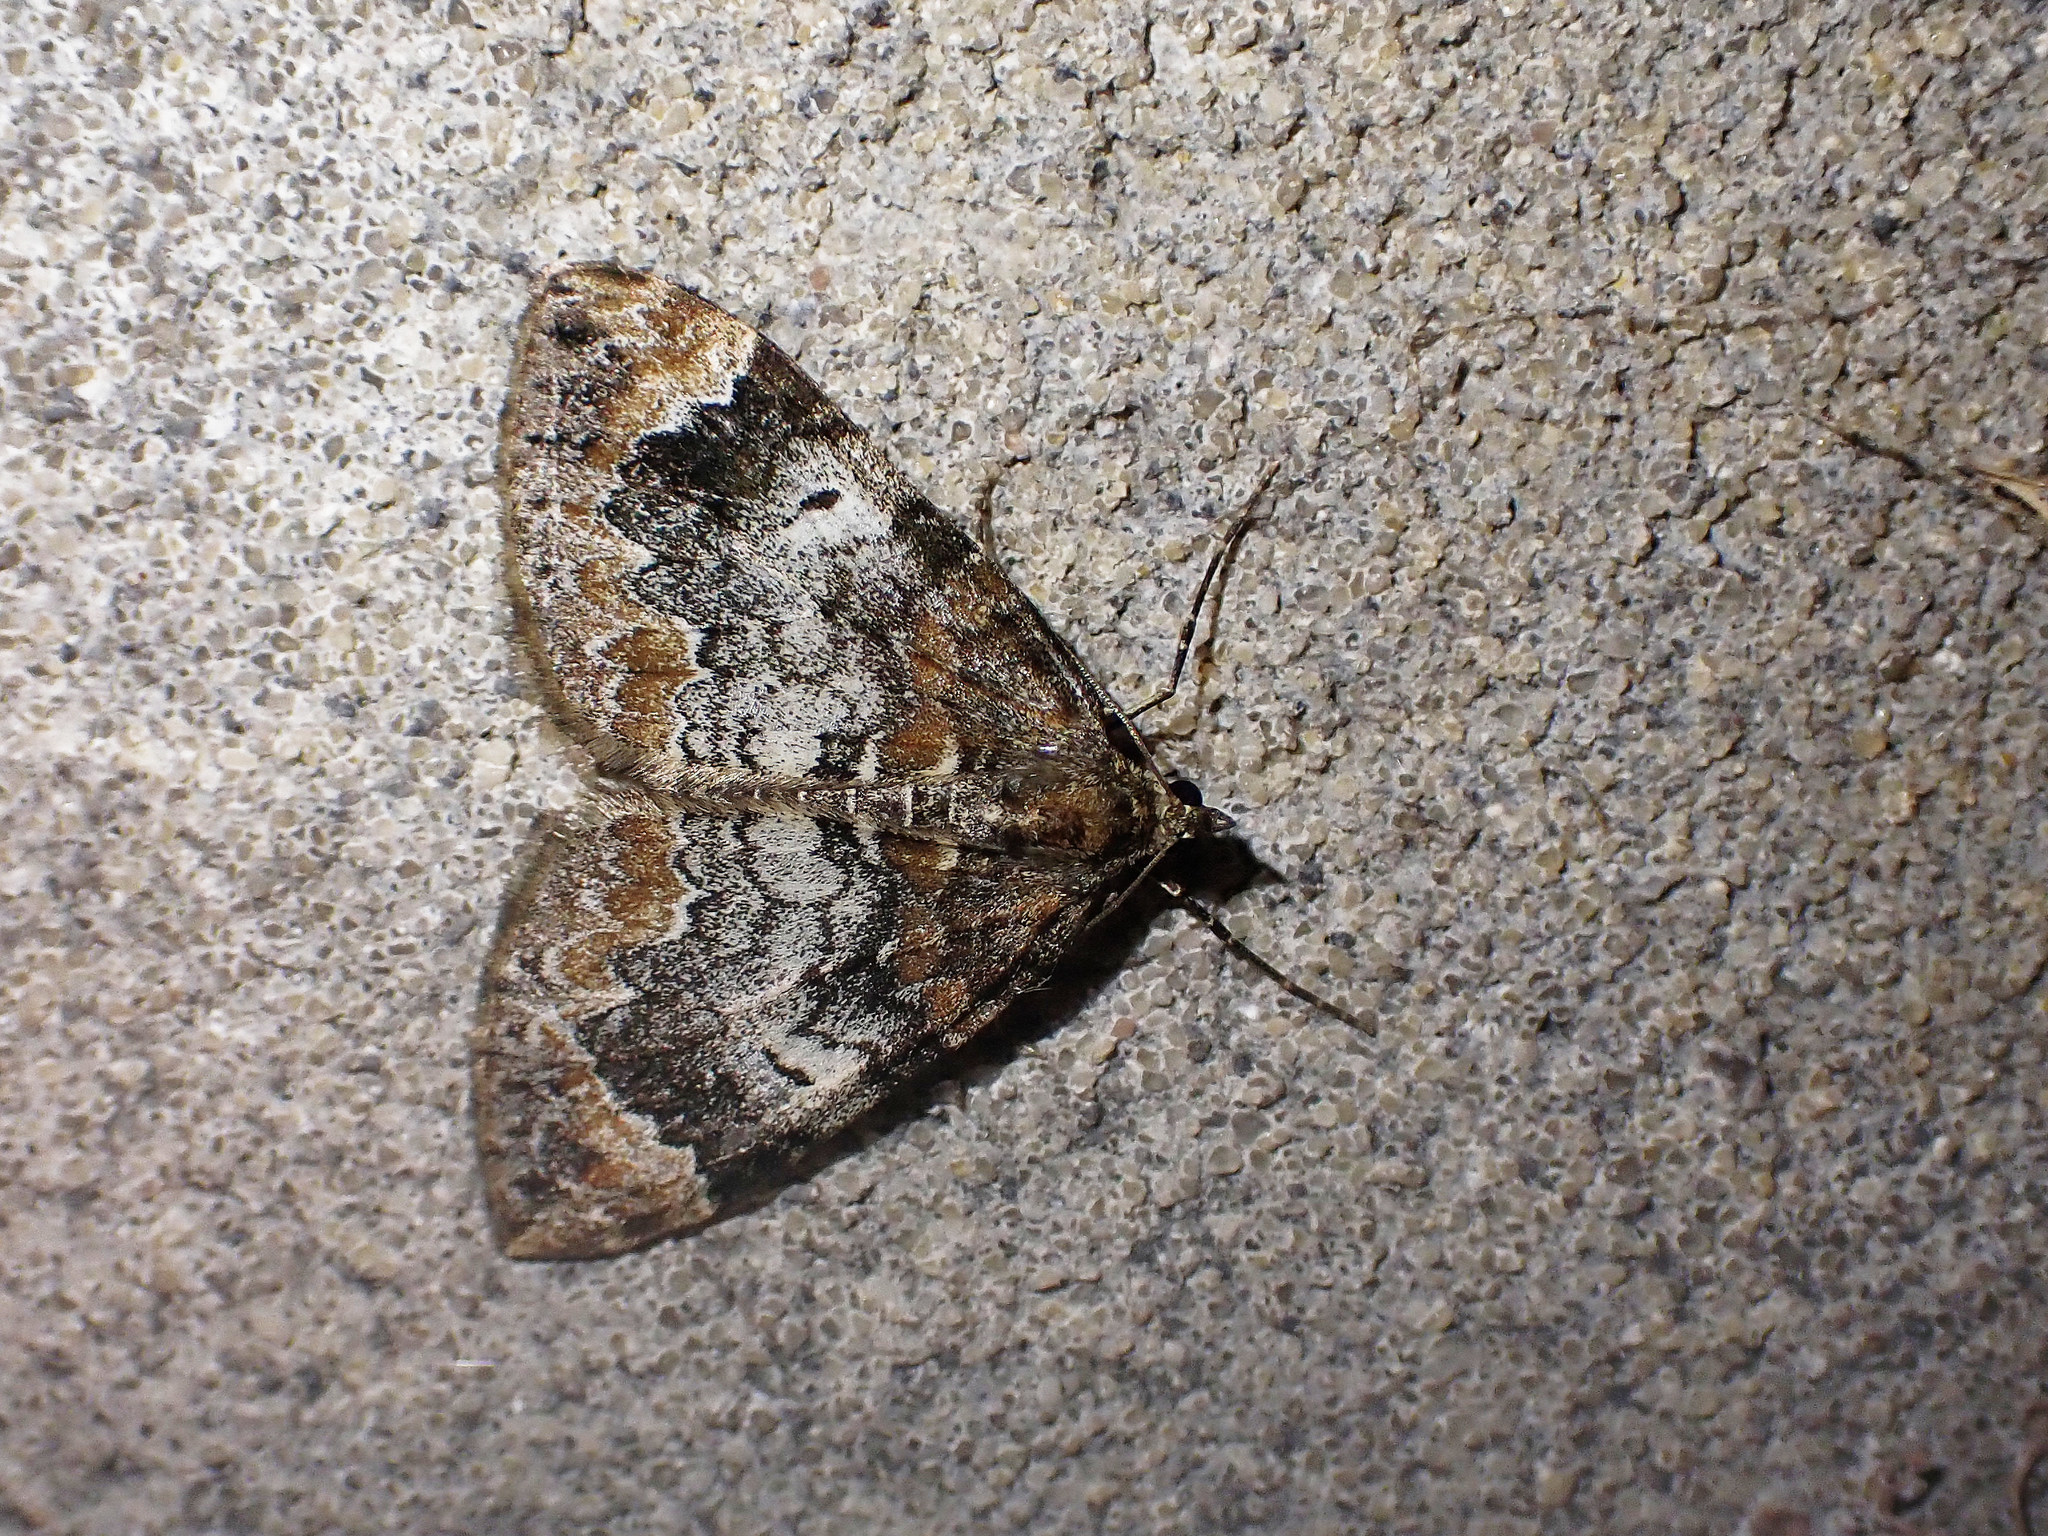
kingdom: Animalia
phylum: Arthropoda
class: Insecta
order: Lepidoptera
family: Geometridae
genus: Dysstroma
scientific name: Dysstroma truncata
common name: Common marbled carpet
